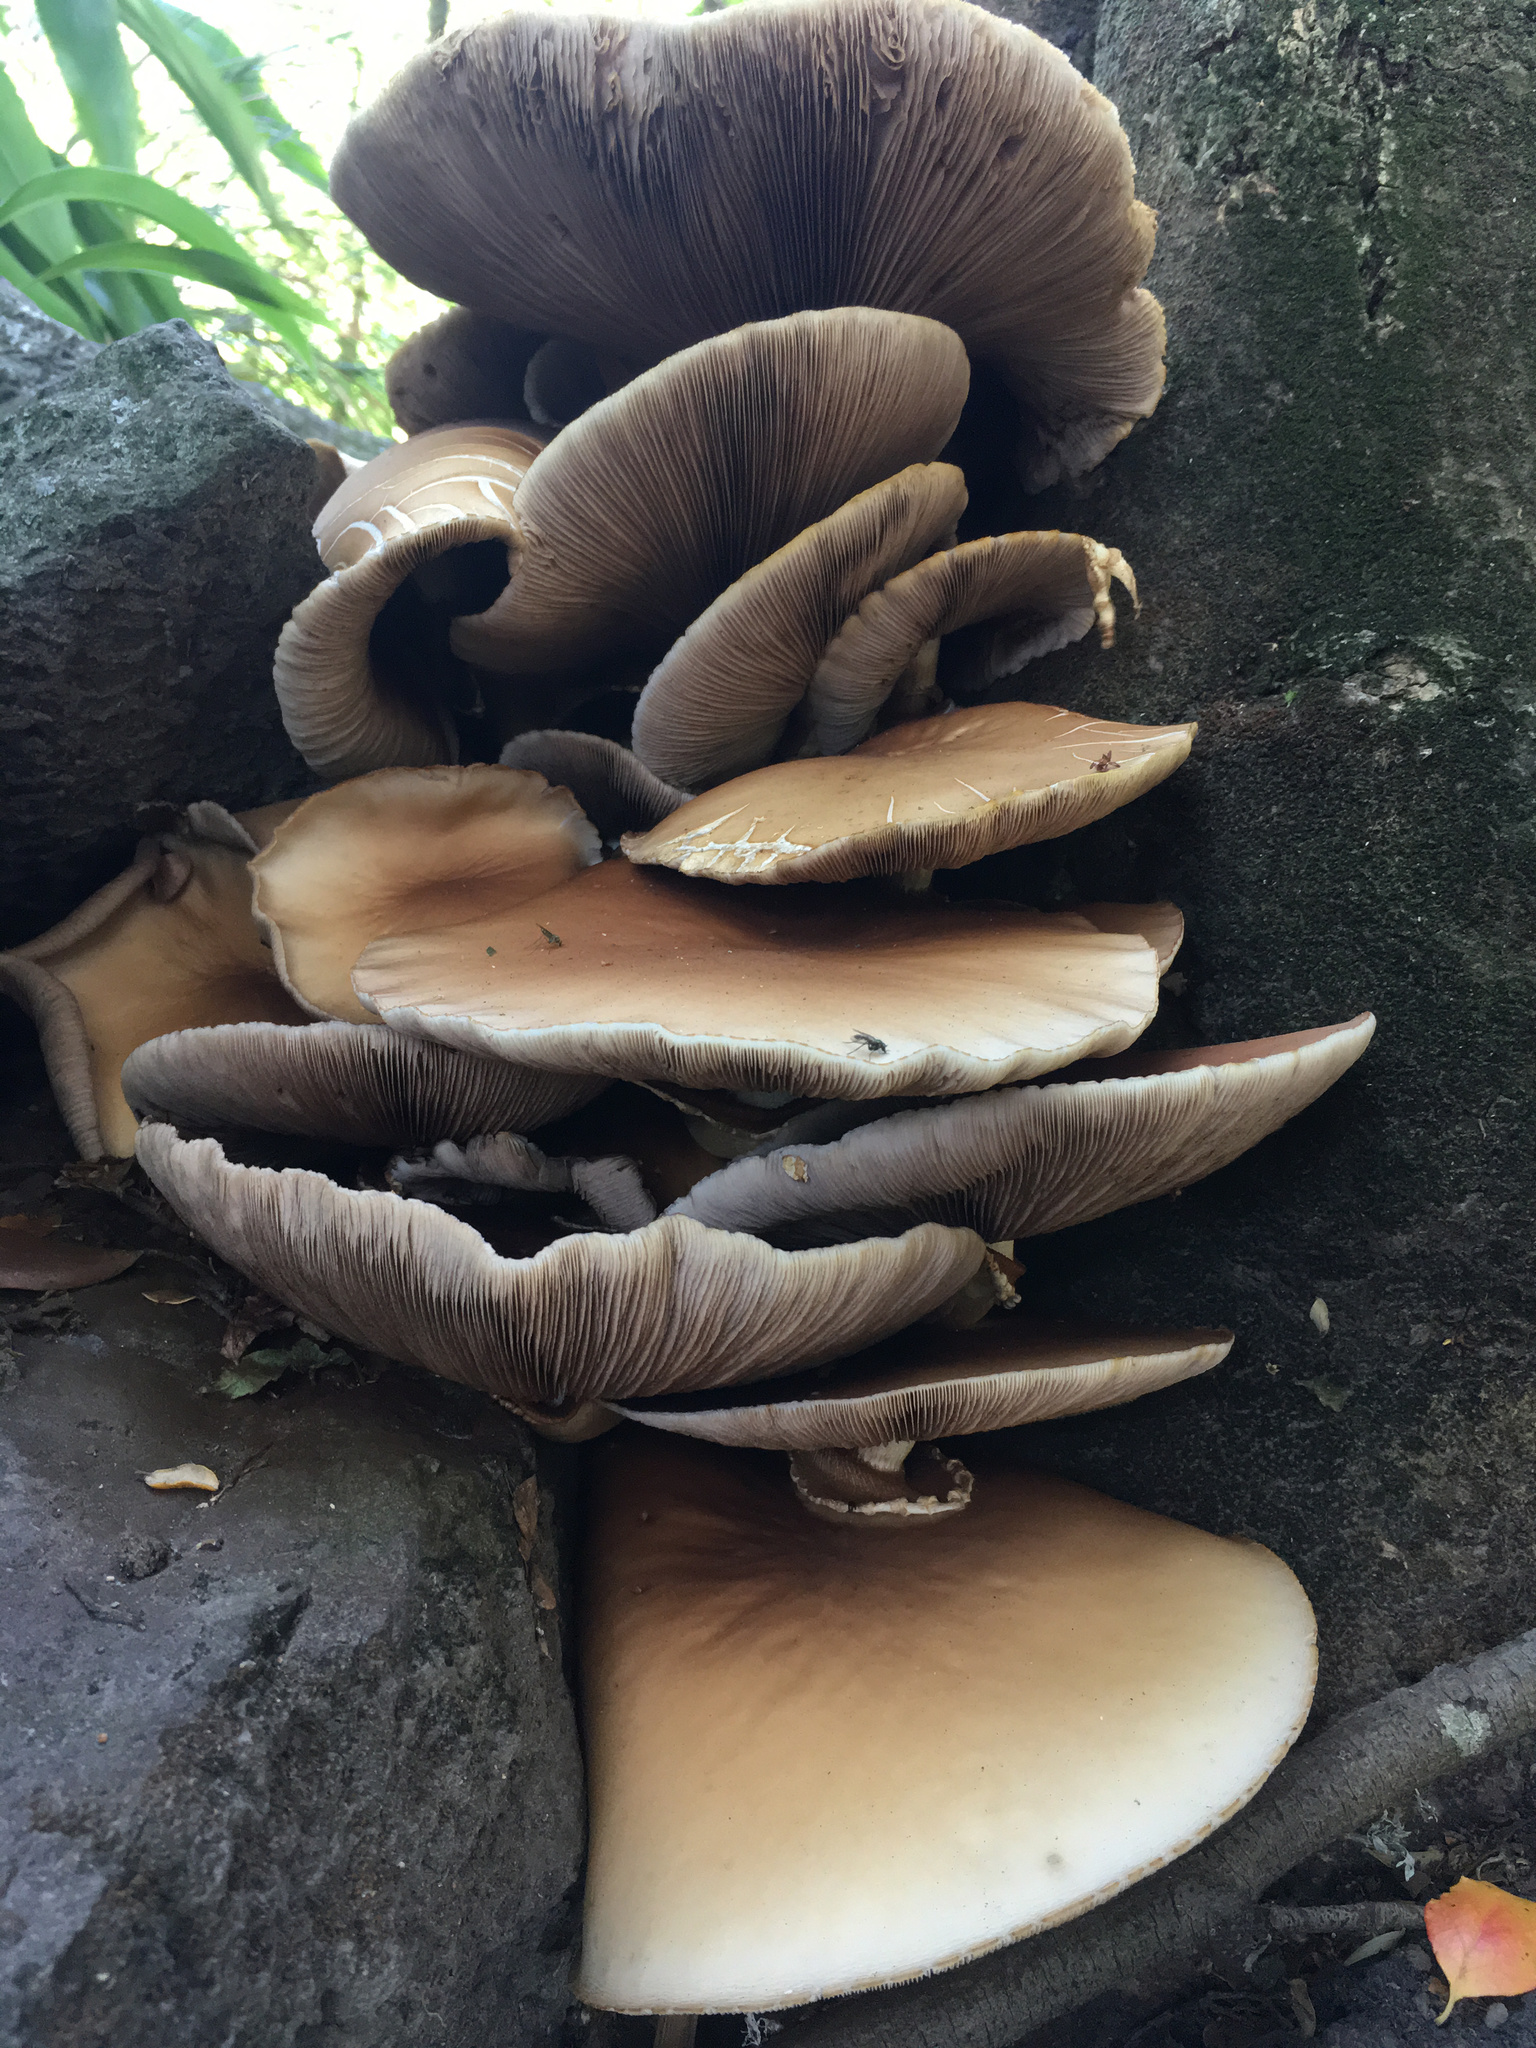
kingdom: Fungi
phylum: Basidiomycota
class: Agaricomycetes
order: Agaricales
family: Tubariaceae
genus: Cyclocybe
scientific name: Cyclocybe parasitica
